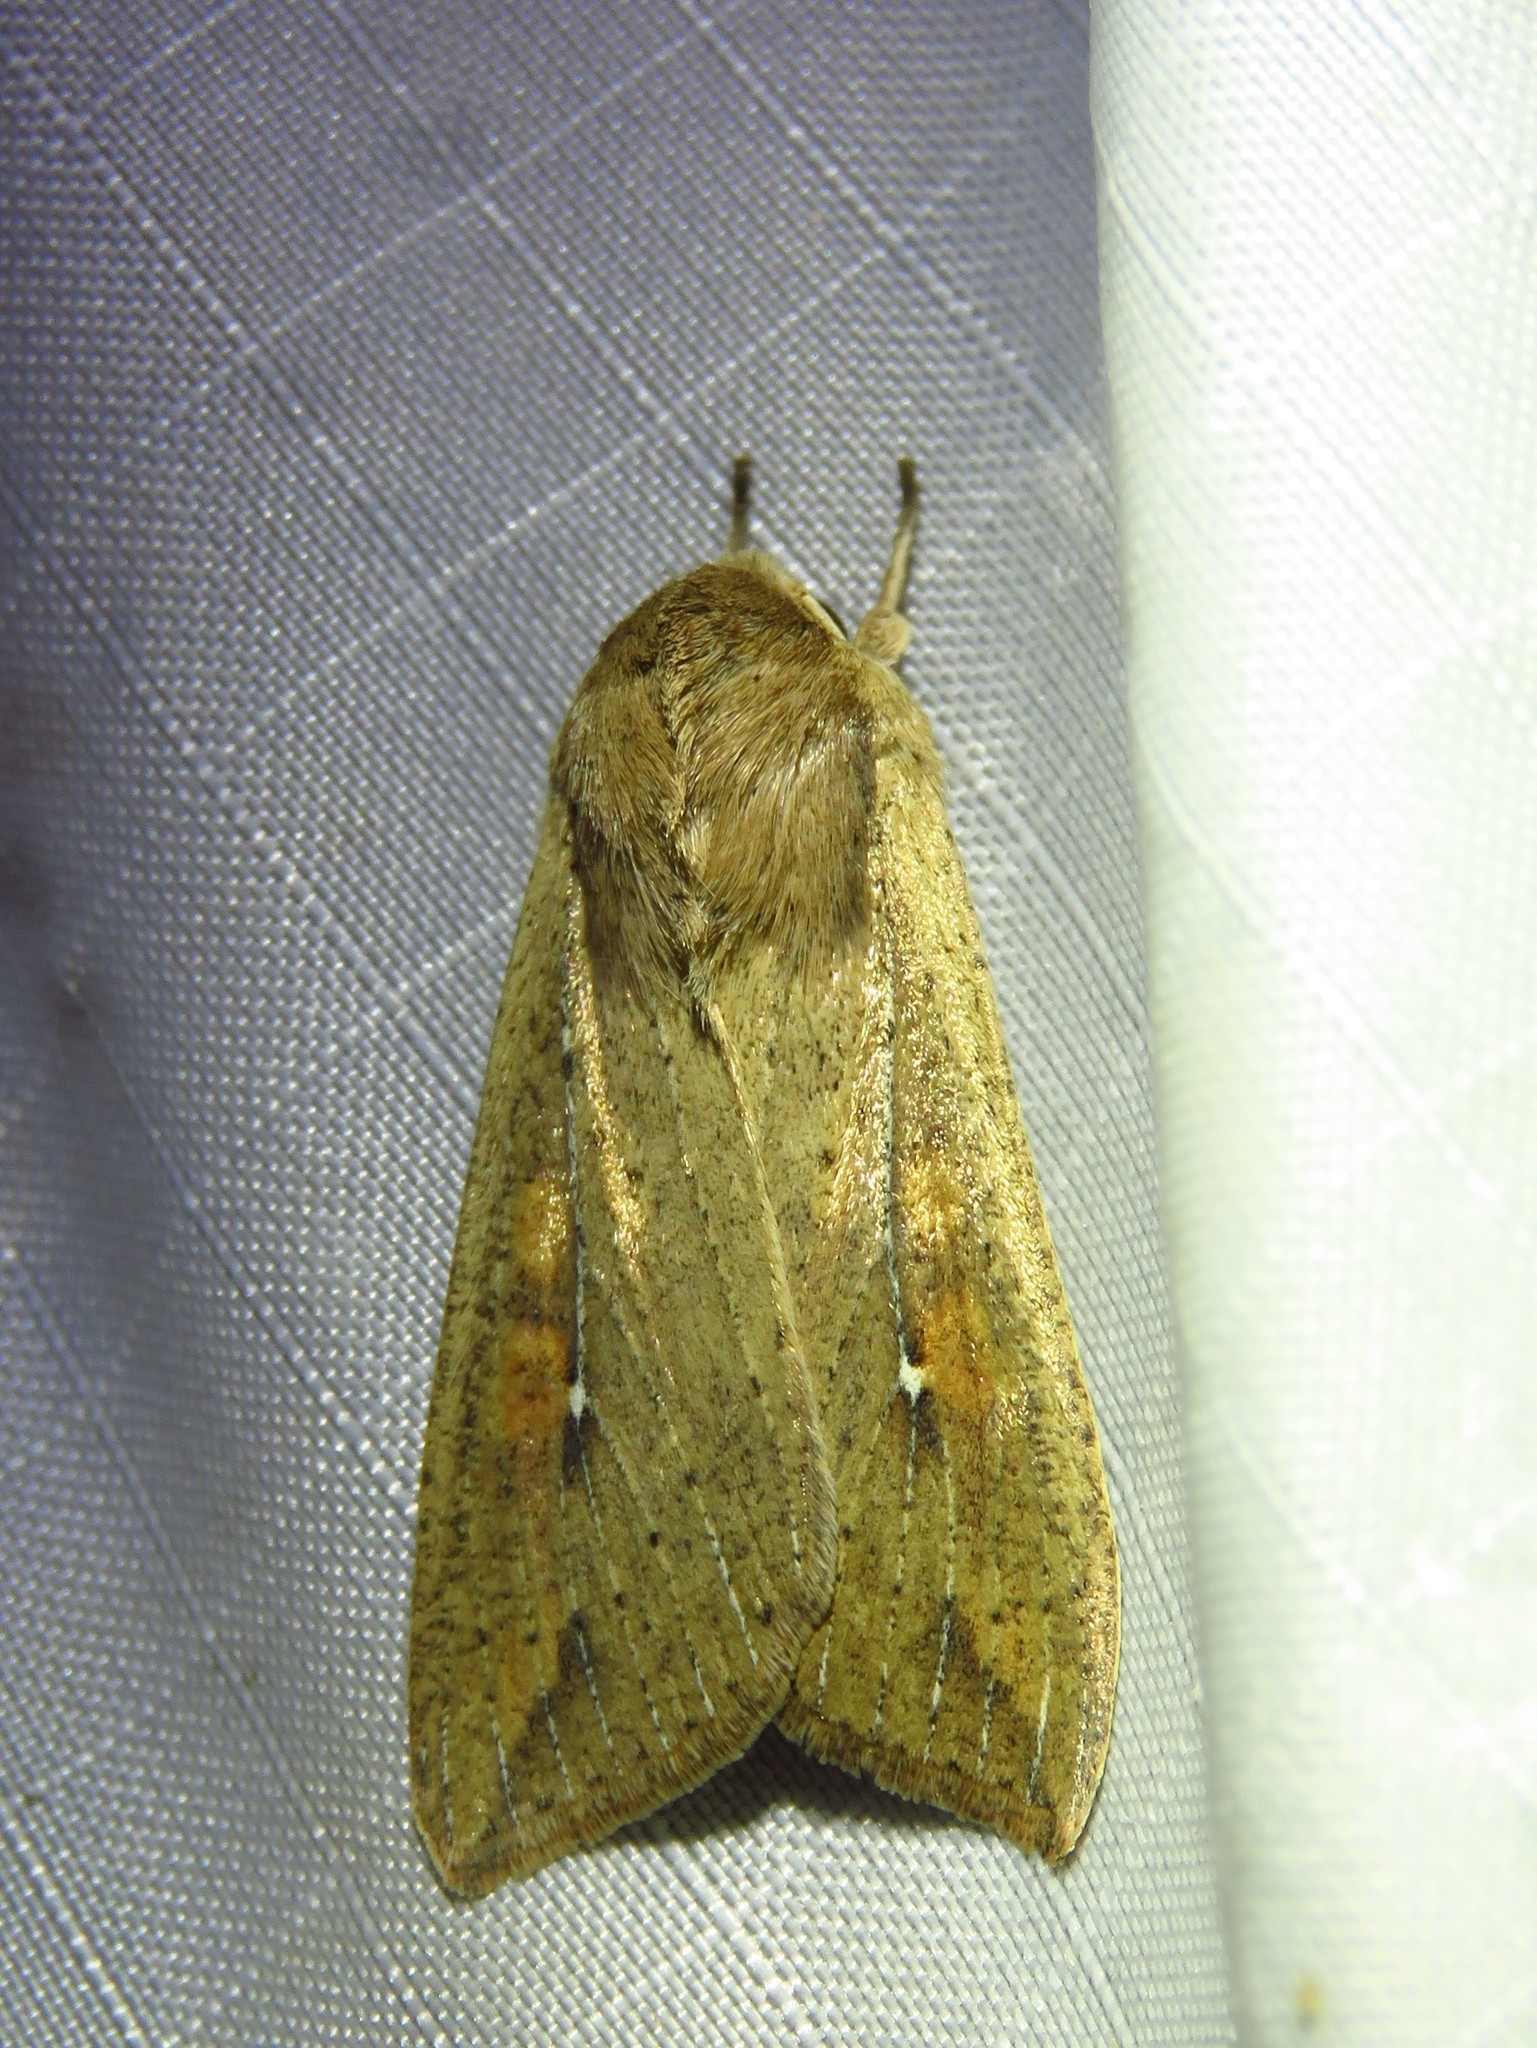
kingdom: Animalia
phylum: Arthropoda
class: Insecta
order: Lepidoptera
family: Noctuidae
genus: Mythimna
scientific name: Mythimna unipuncta
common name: White-speck
